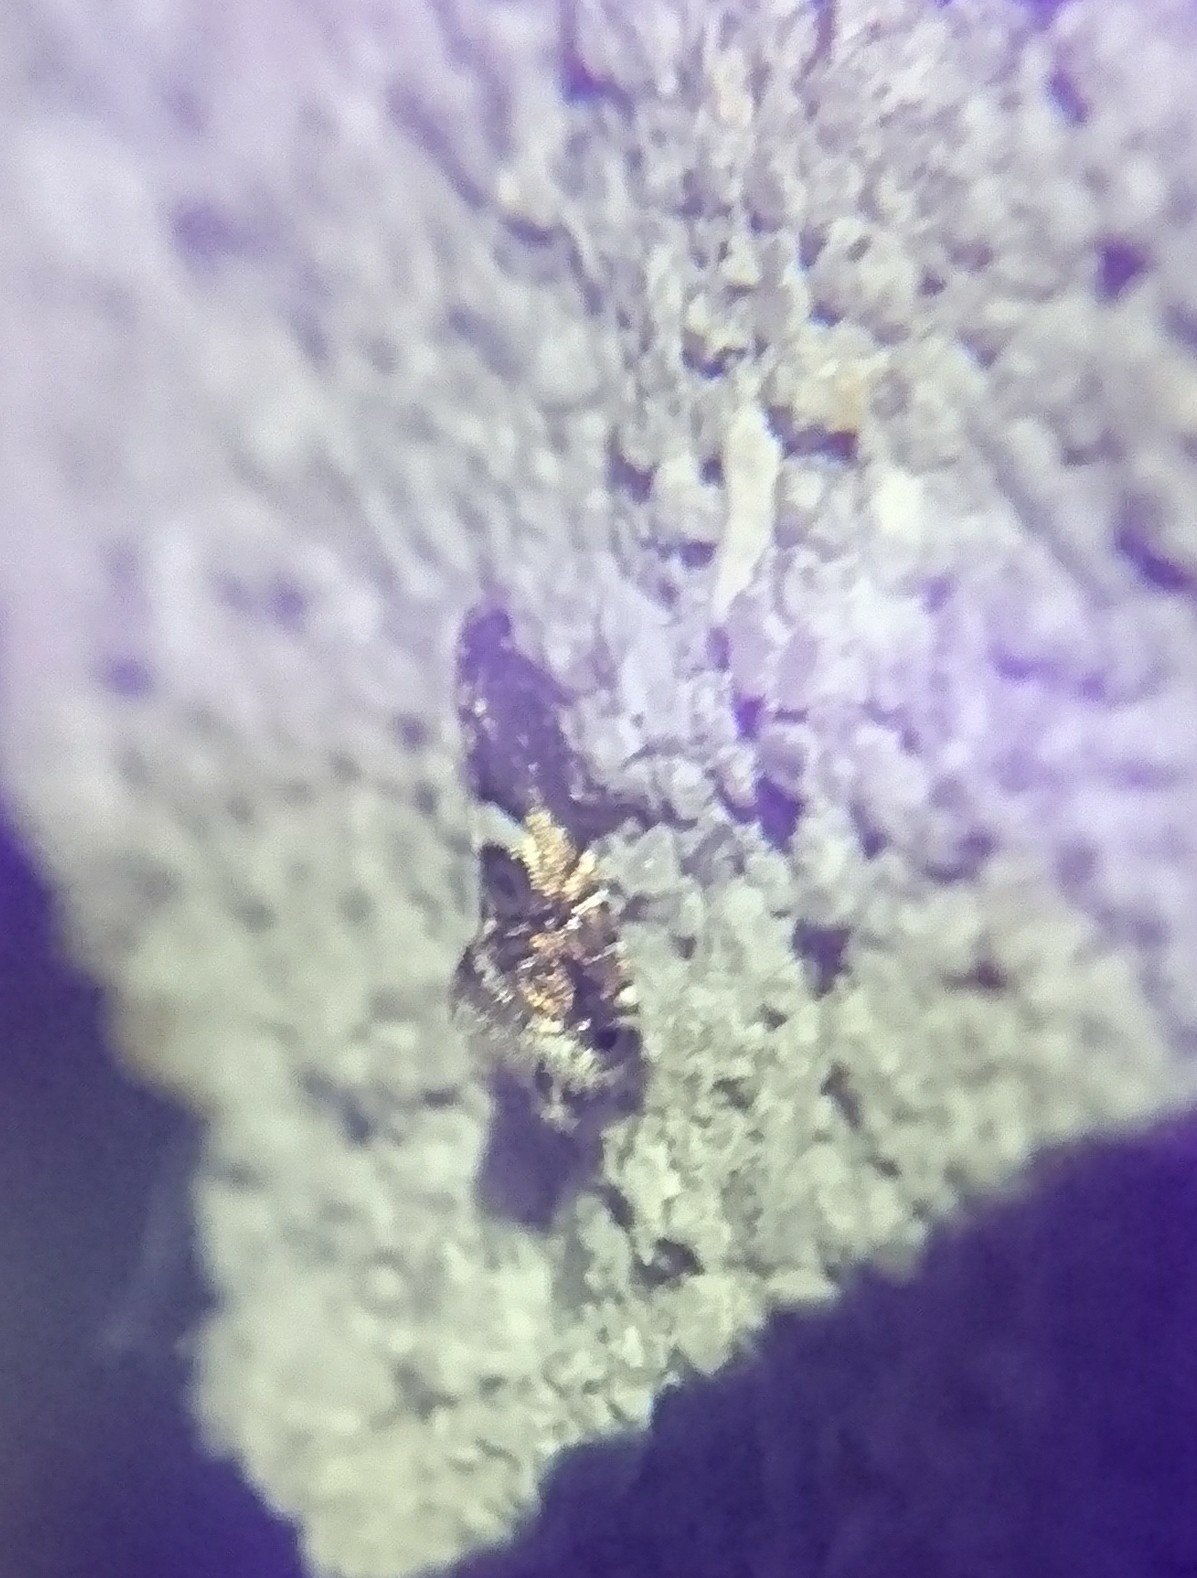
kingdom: Animalia
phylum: Arthropoda
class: Insecta
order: Lepidoptera
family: Glyphipterigidae
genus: Glyphipterix
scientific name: Glyphipterix Diploschizia impigritella
